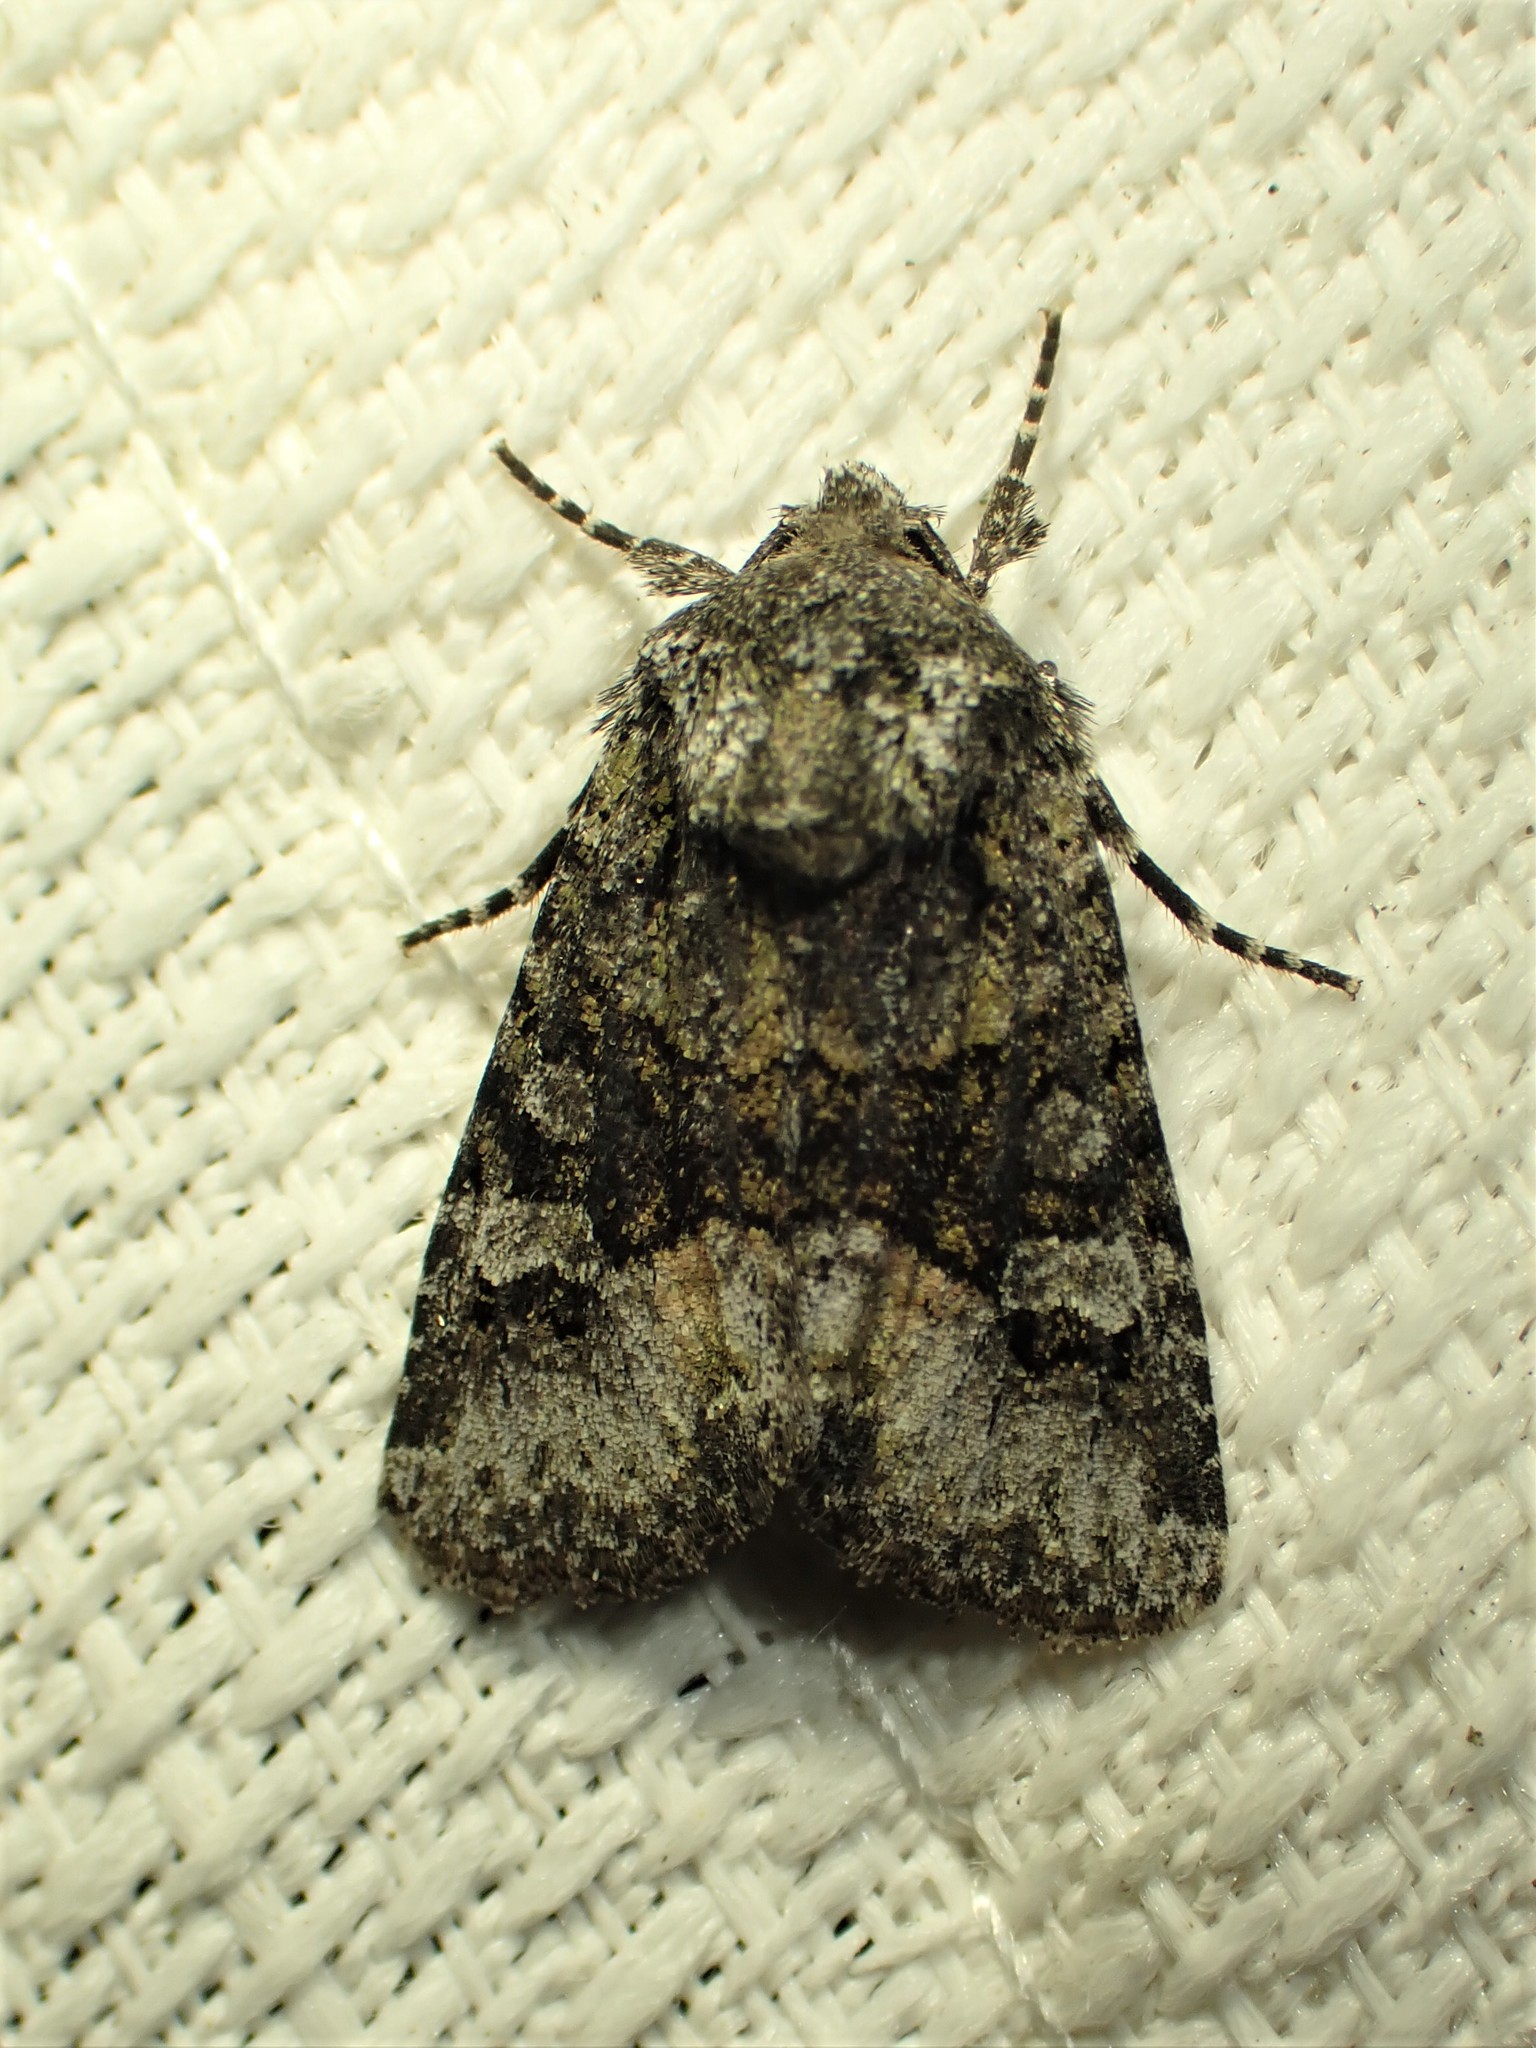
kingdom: Animalia
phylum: Arthropoda
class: Insecta
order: Lepidoptera
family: Noctuidae
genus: Lacinipolia
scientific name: Lacinipolia olivacea
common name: Olive arches moth
